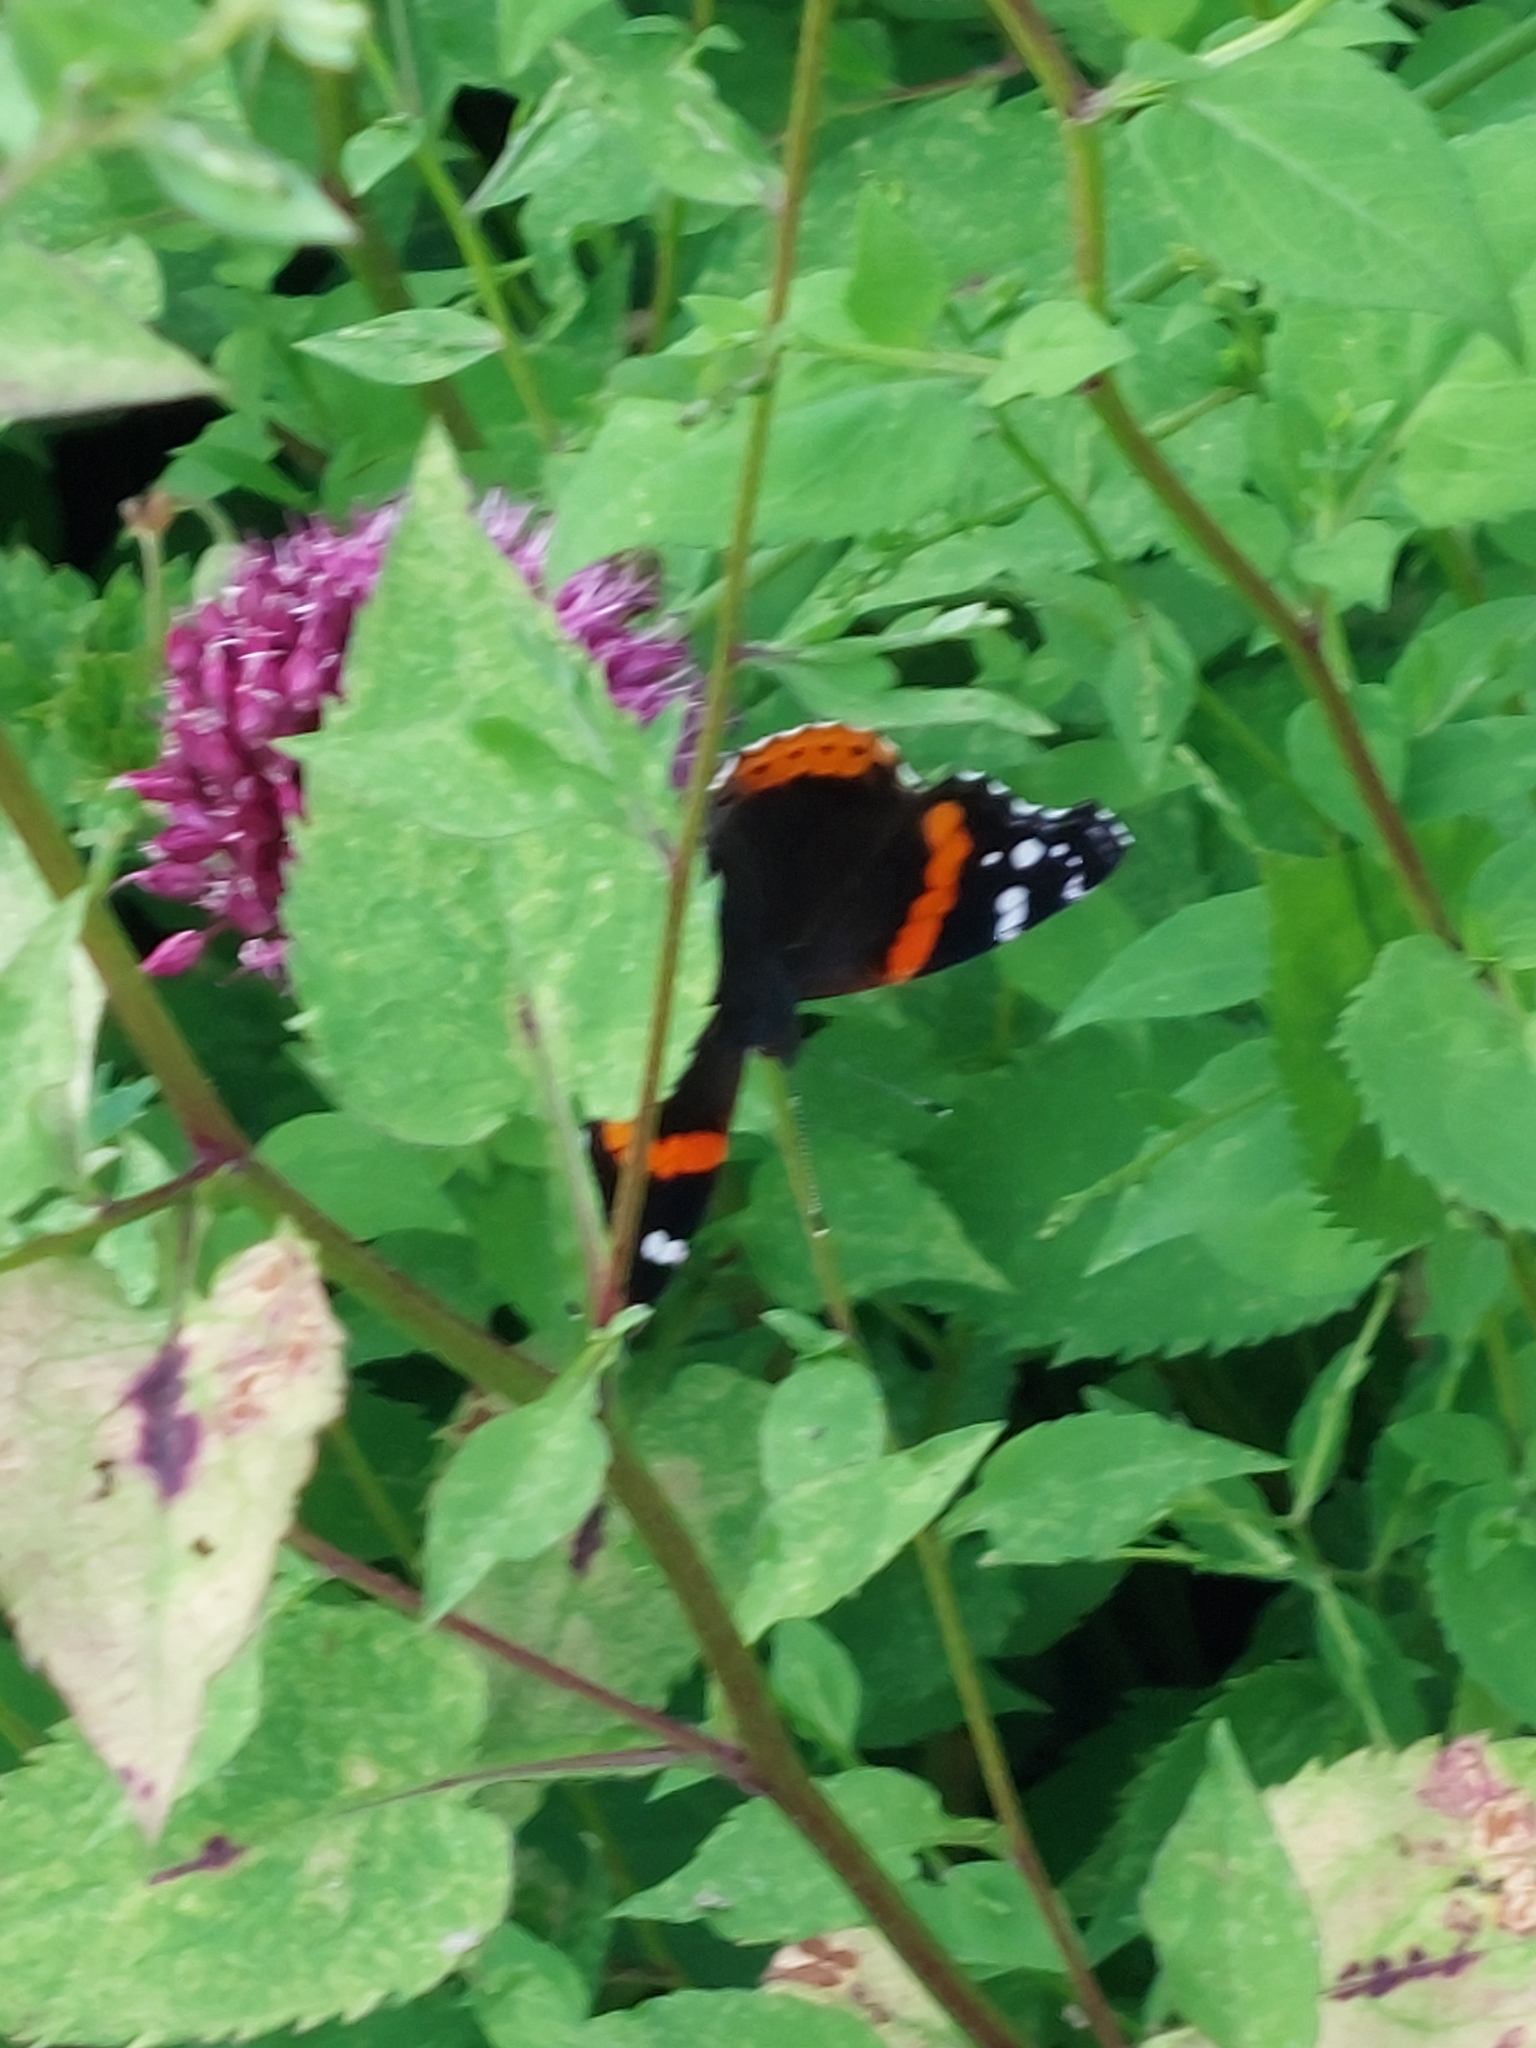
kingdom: Animalia
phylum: Arthropoda
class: Insecta
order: Lepidoptera
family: Nymphalidae
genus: Vanessa
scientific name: Vanessa atalanta
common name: Red admiral
